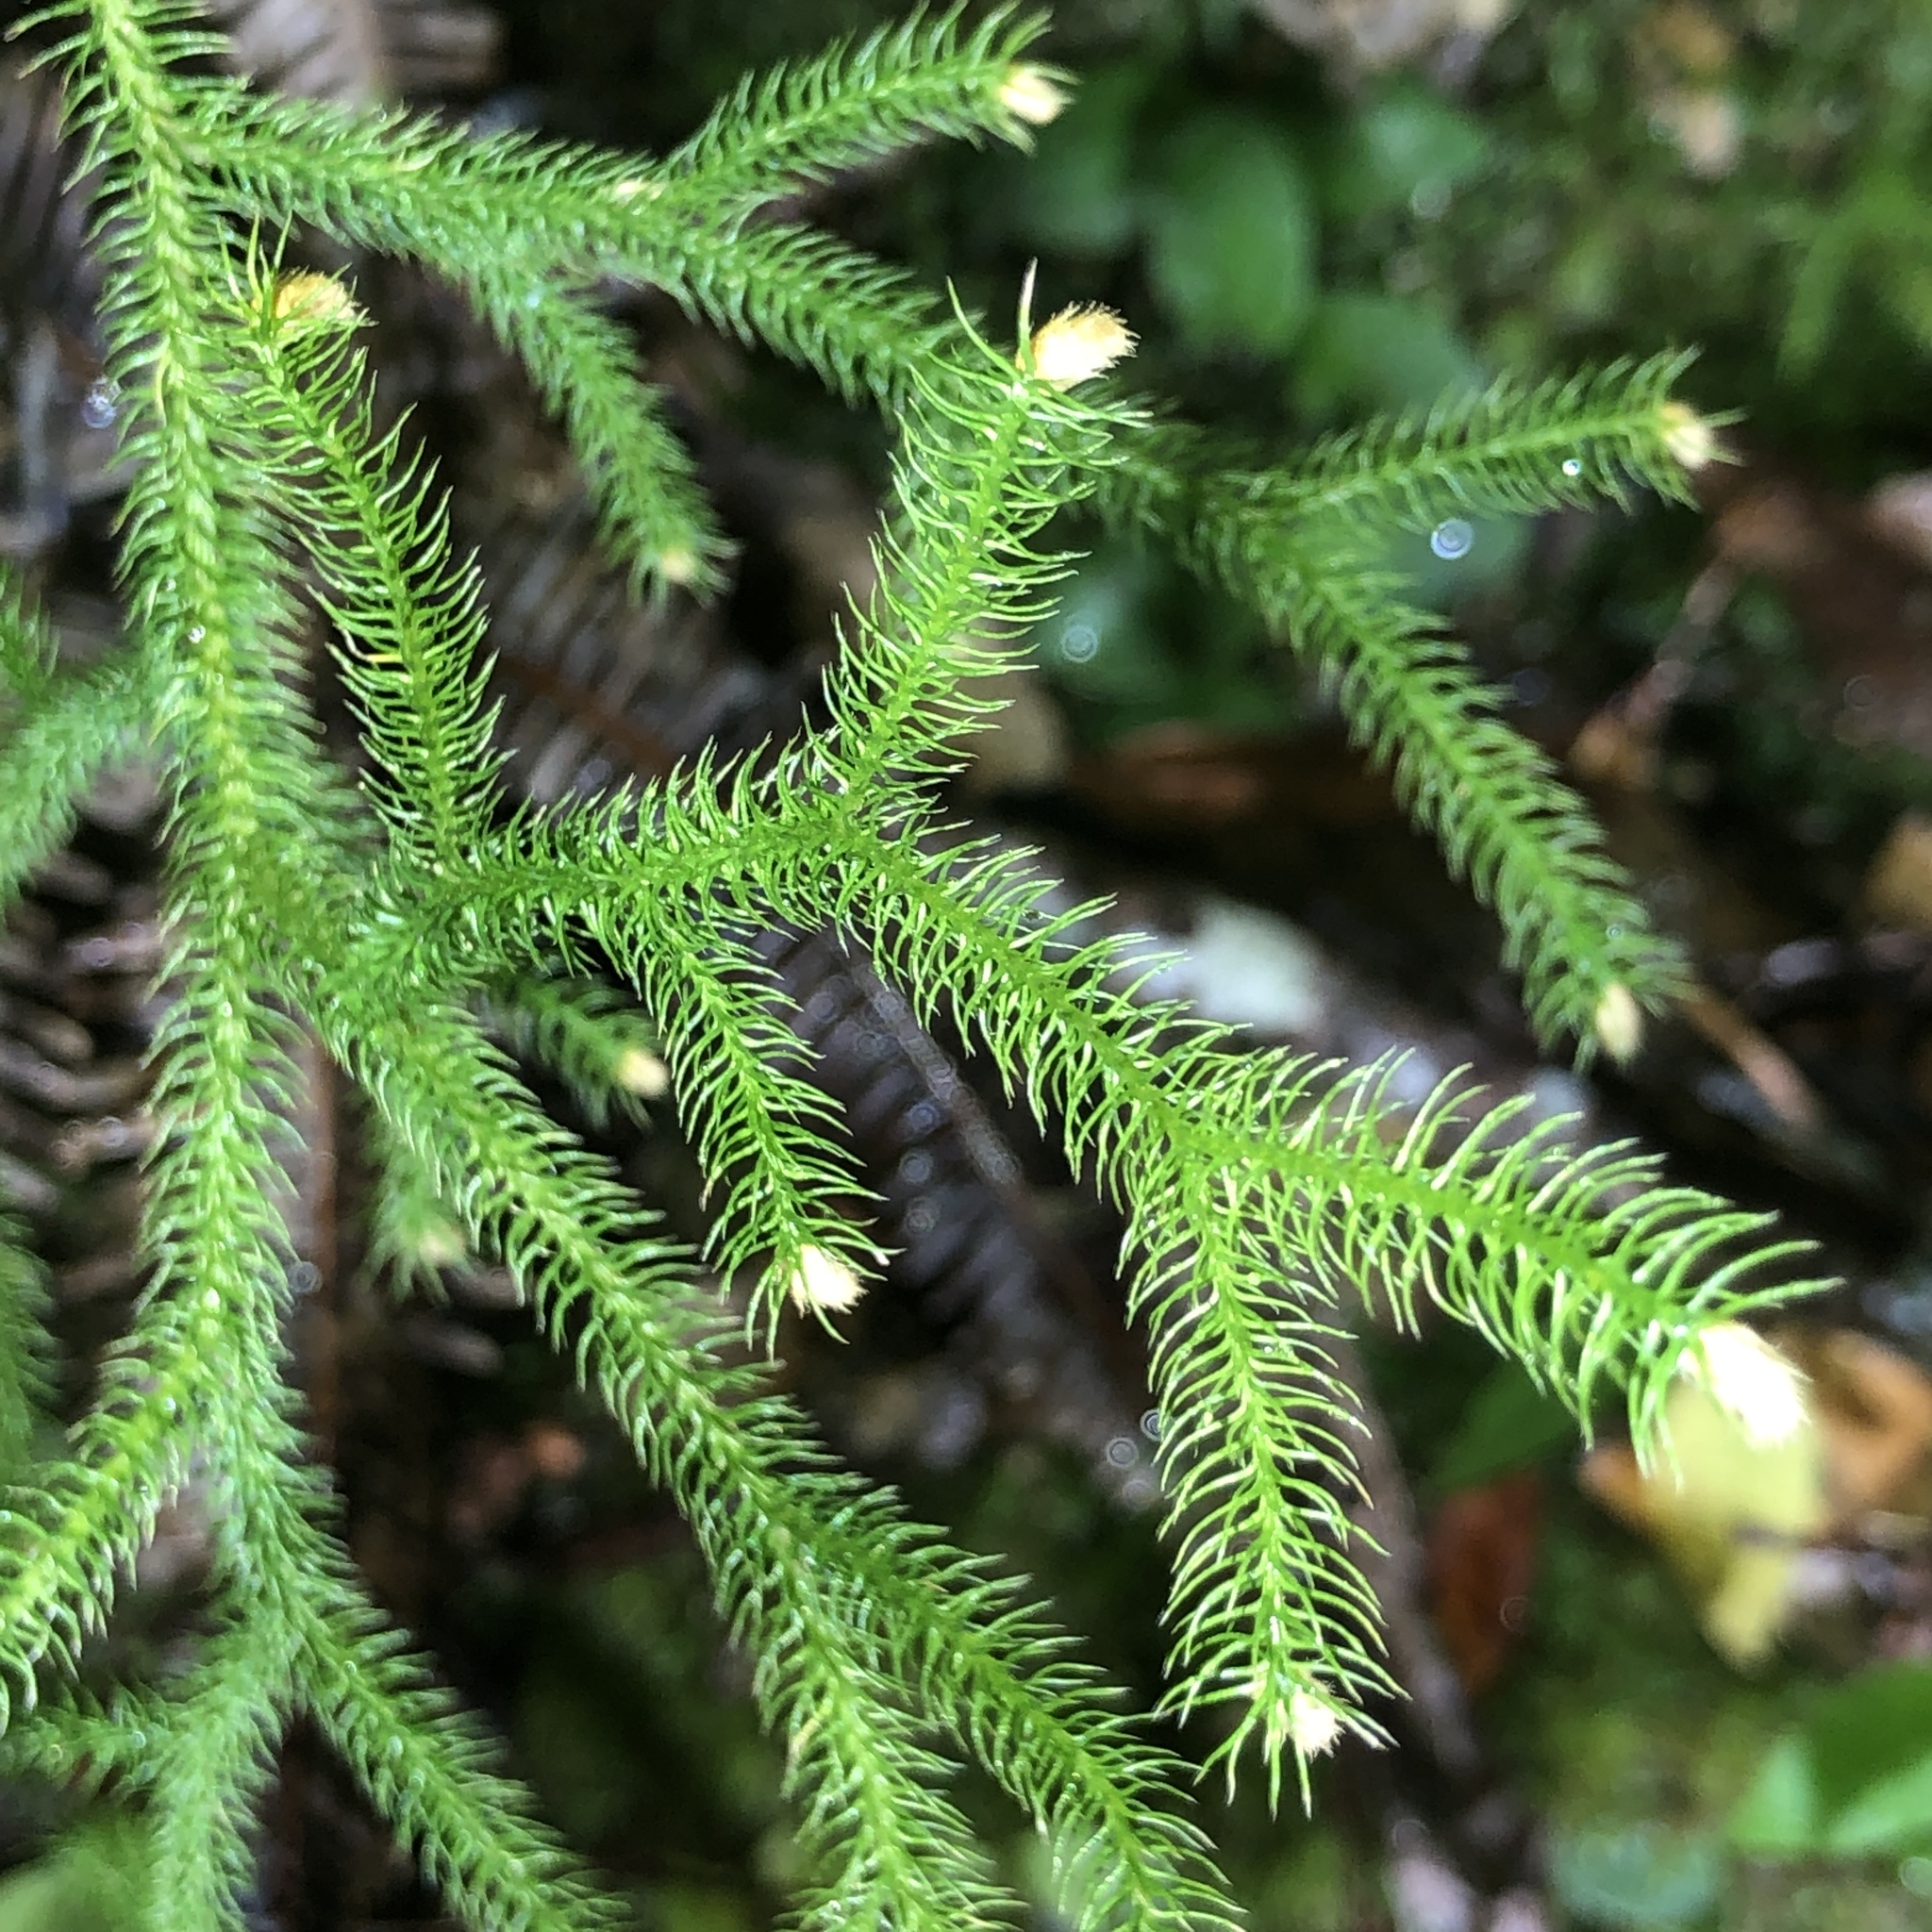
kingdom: Plantae
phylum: Tracheophyta
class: Lycopodiopsida
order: Lycopodiales
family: Lycopodiaceae
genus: Palhinhaea
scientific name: Palhinhaea cernua
